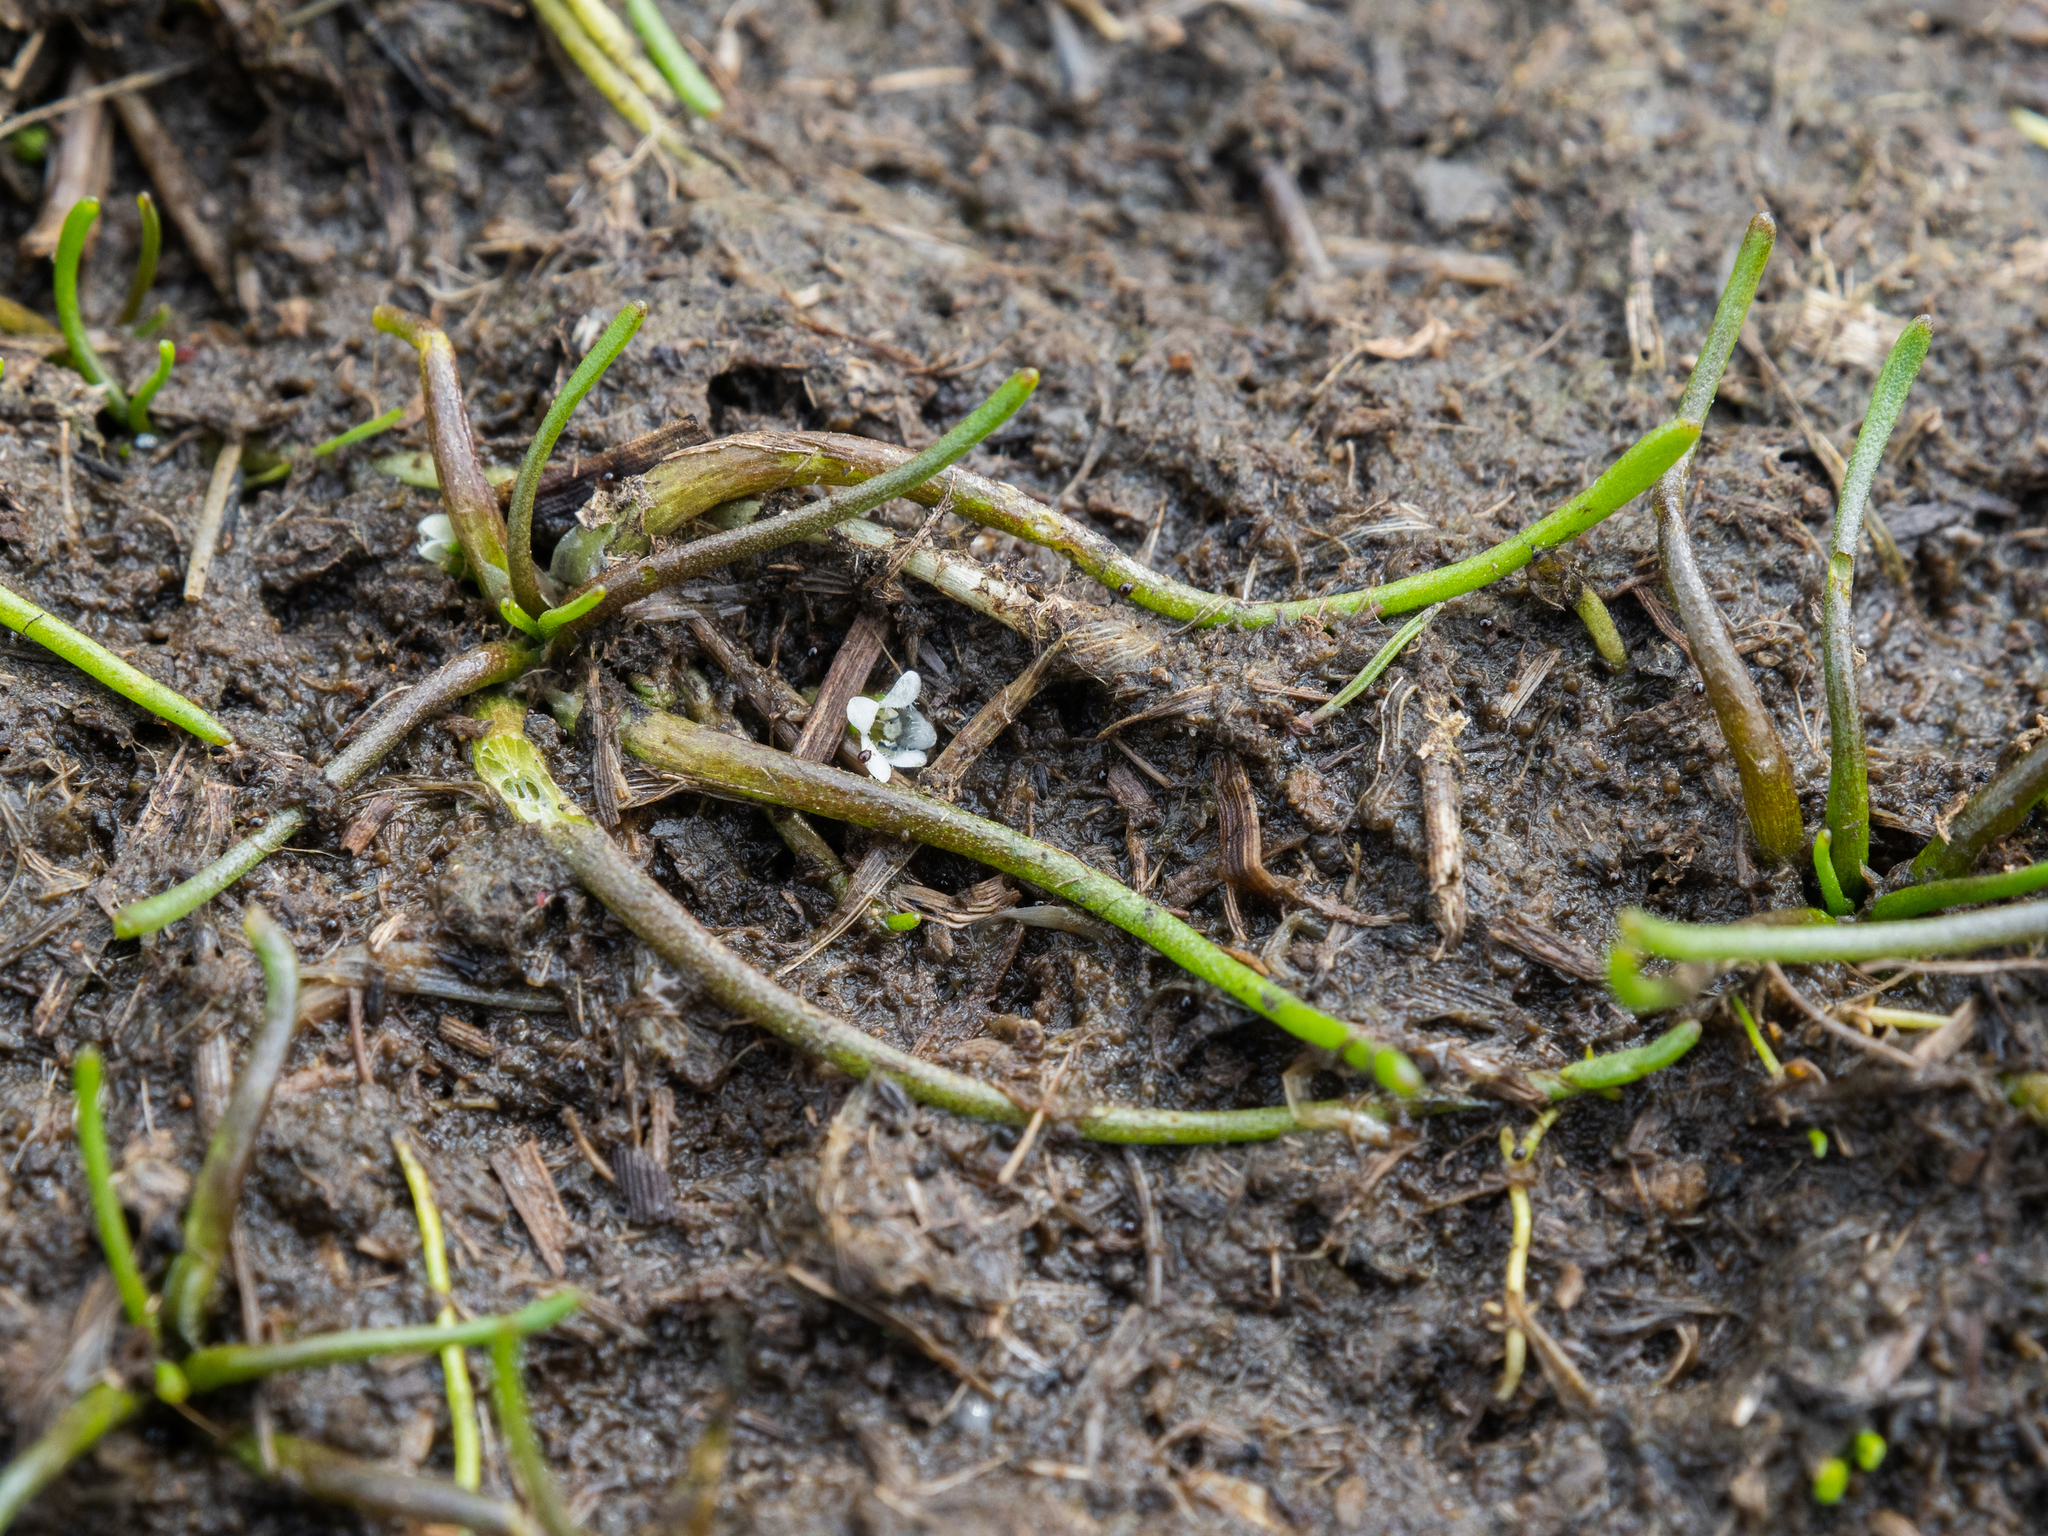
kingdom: Plantae
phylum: Tracheophyta
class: Magnoliopsida
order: Lamiales
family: Scrophulariaceae
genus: Limosella
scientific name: Limosella australis
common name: Welsh mudwort
